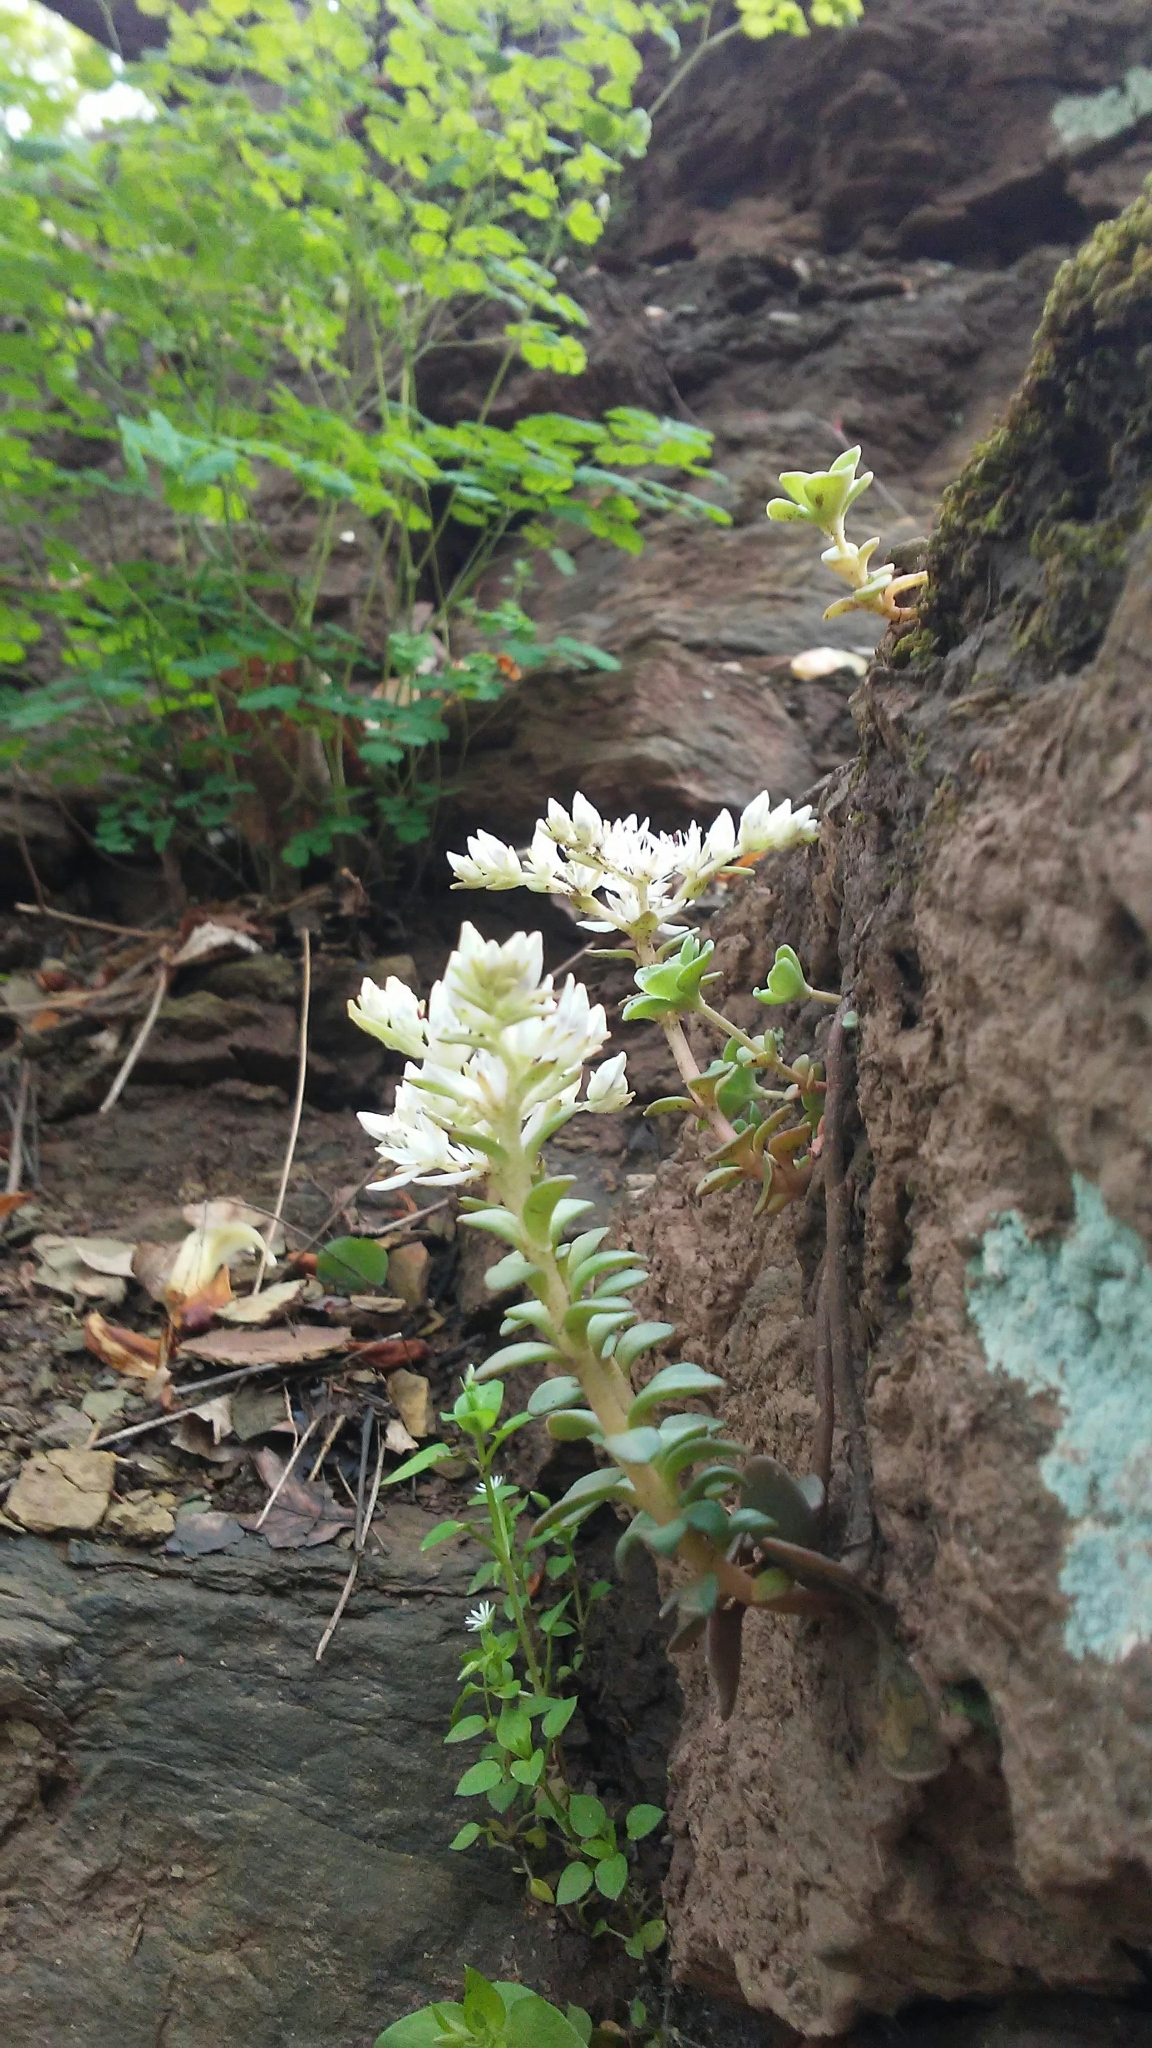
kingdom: Plantae
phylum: Tracheophyta
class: Magnoliopsida
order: Saxifragales
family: Crassulaceae
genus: Sedum
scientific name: Sedum ternatum
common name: Wild stonecrop
